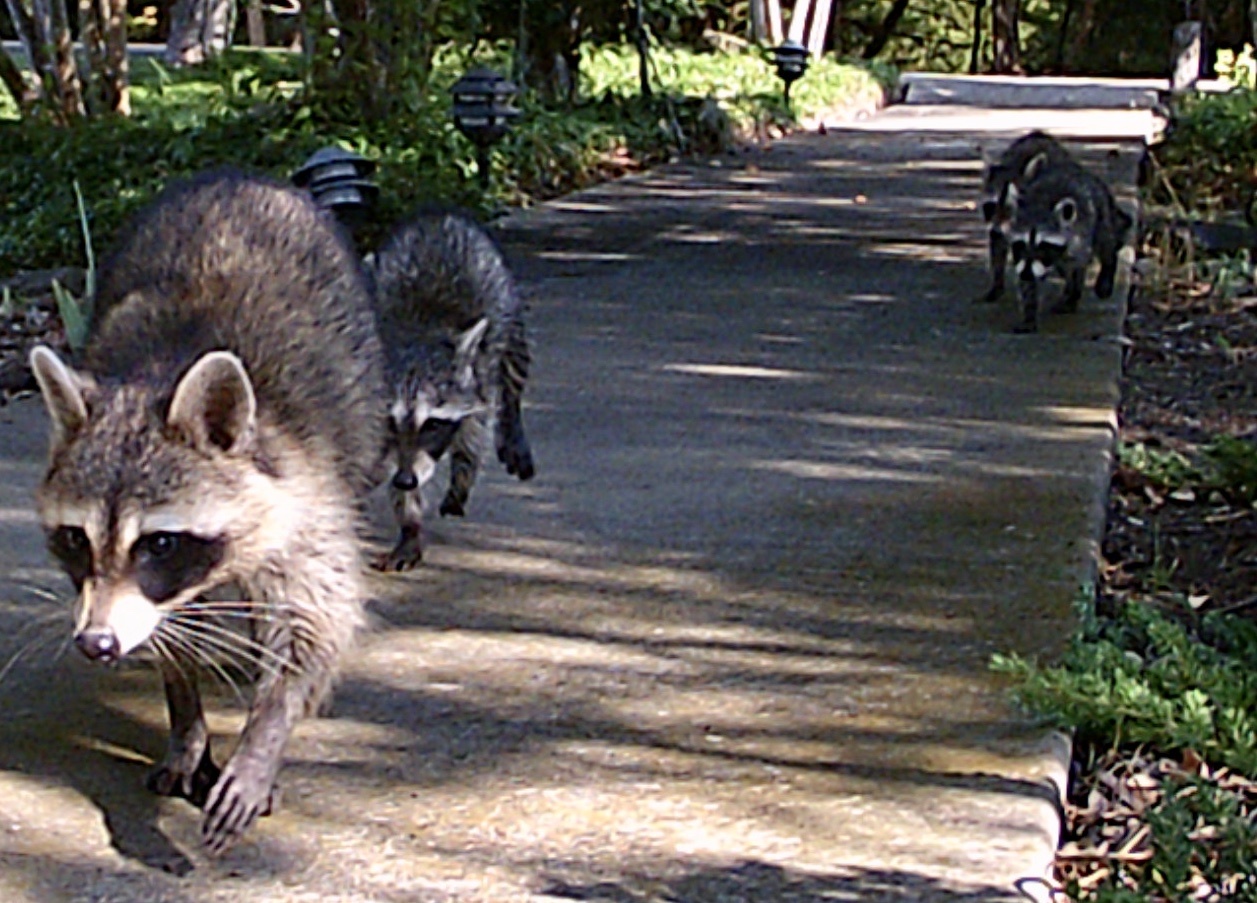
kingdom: Animalia
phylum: Chordata
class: Mammalia
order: Carnivora
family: Procyonidae
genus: Procyon
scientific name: Procyon lotor
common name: Raccoon
